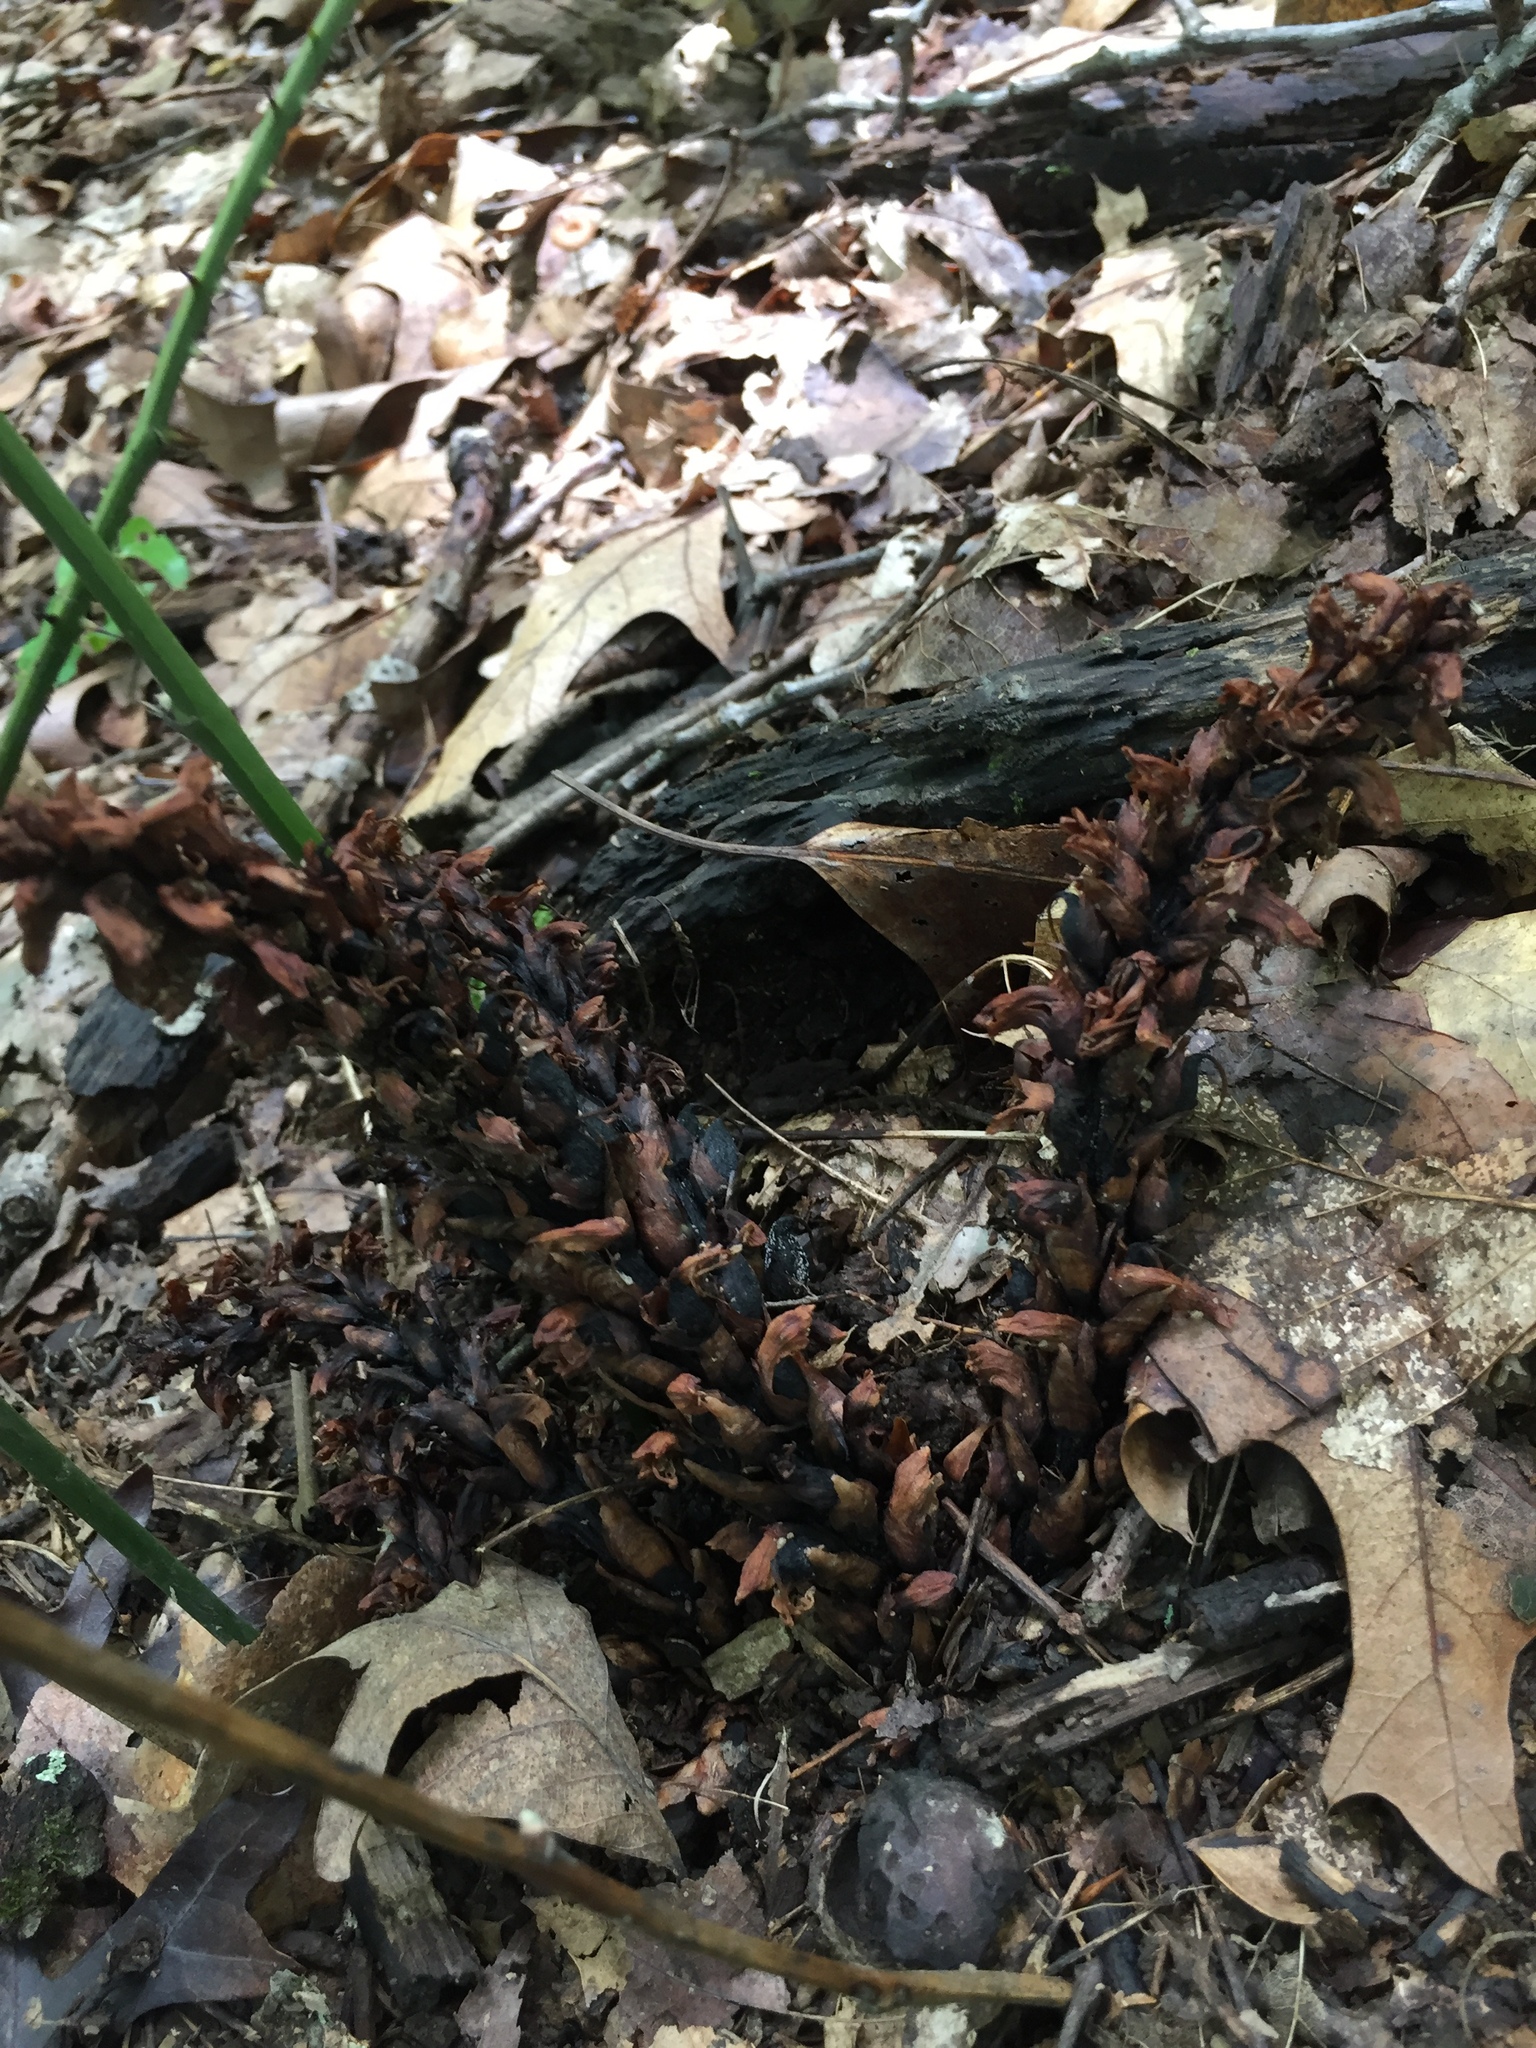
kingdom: Plantae
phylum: Tracheophyta
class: Magnoliopsida
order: Lamiales
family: Orobanchaceae
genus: Conopholis
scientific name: Conopholis americana
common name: American cancer-root
